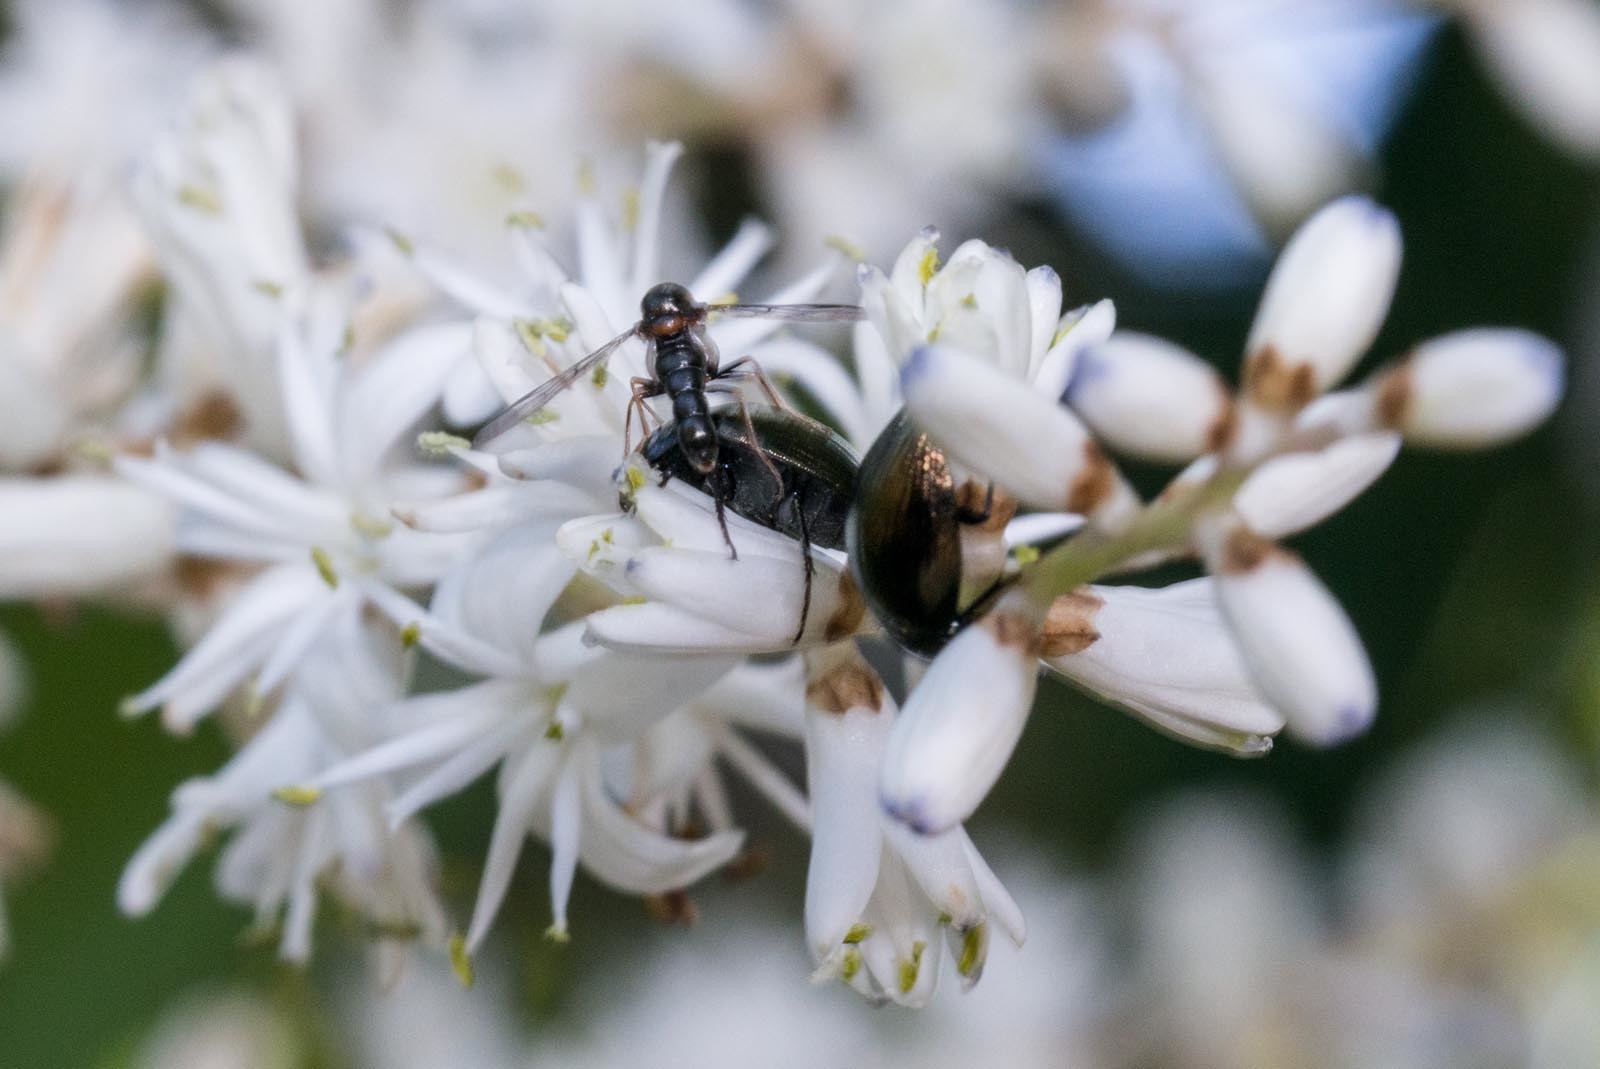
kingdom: Animalia
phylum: Arthropoda
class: Insecta
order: Diptera
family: Acroceridae
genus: Helle
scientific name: Helle longirostris
